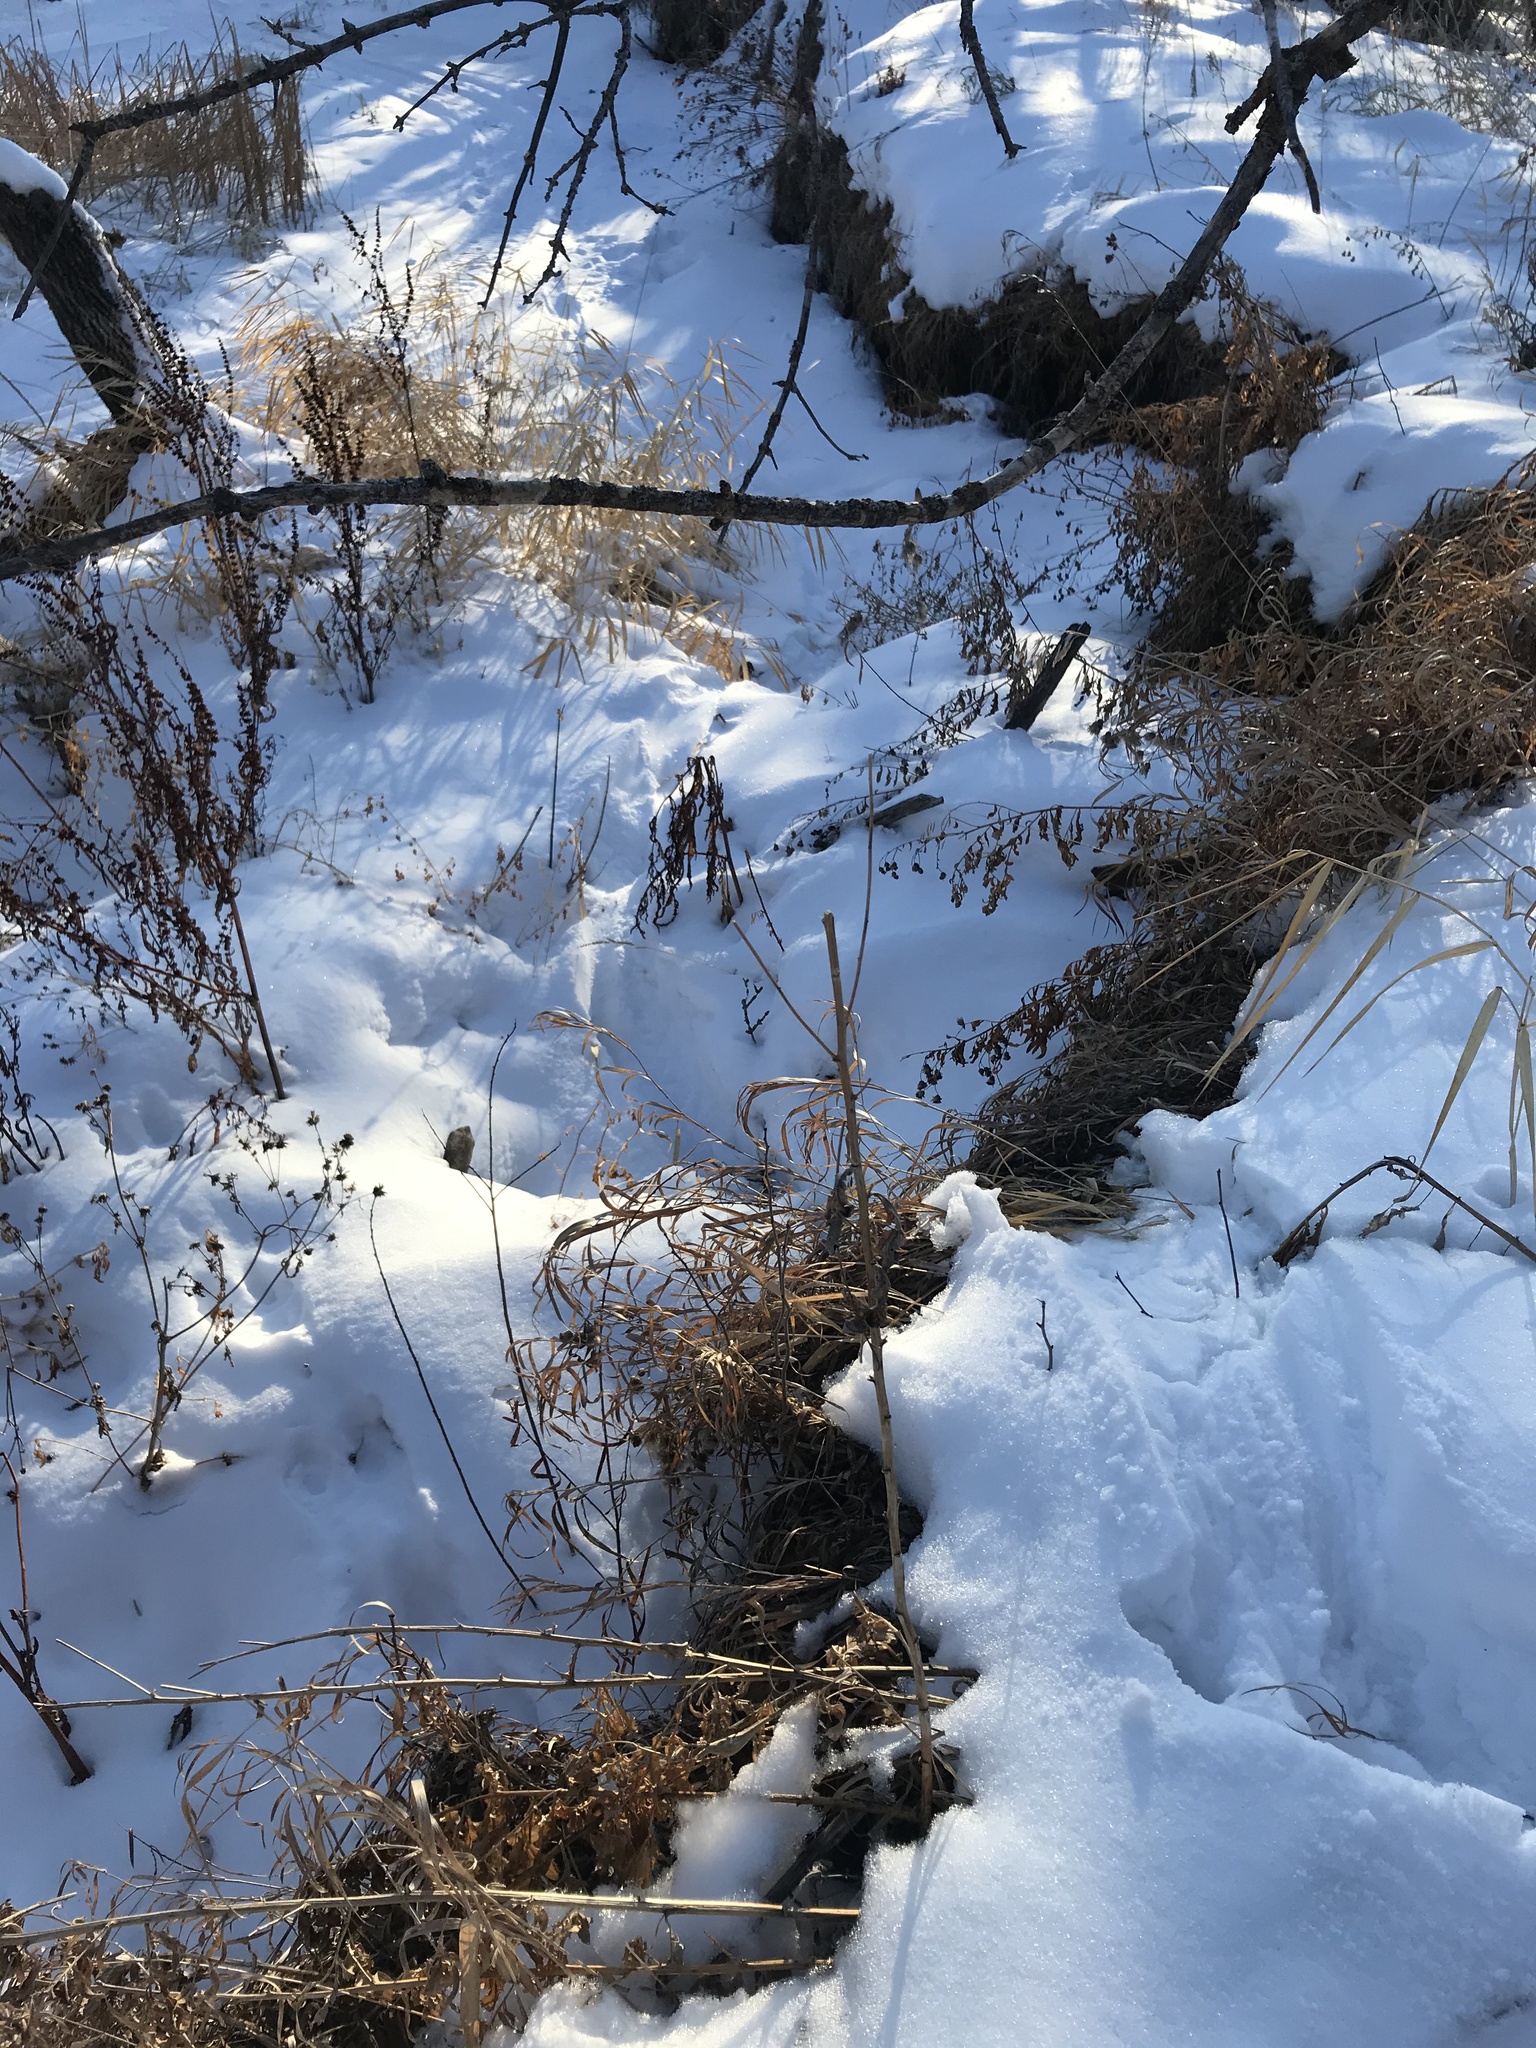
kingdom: Animalia
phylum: Chordata
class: Mammalia
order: Carnivora
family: Mustelidae
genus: Lontra
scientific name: Lontra canadensis
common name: North american river otter
